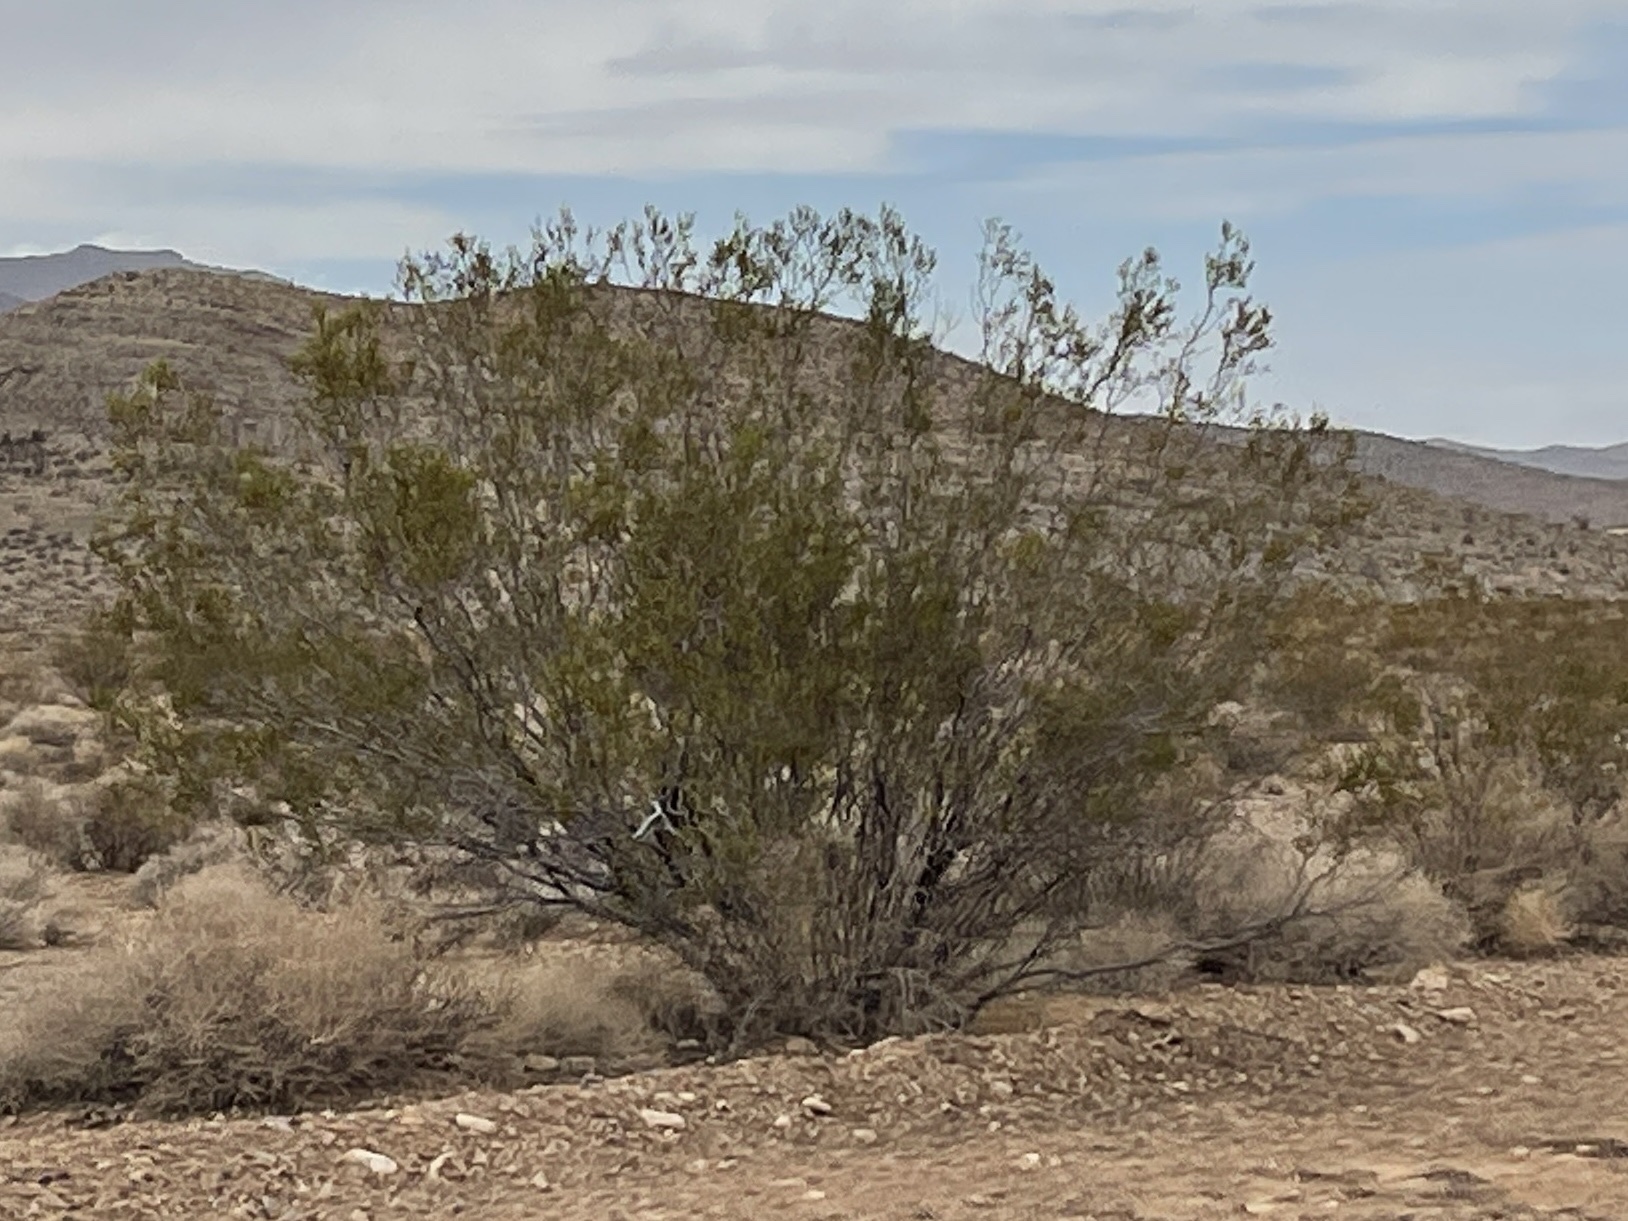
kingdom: Plantae
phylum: Tracheophyta
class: Magnoliopsida
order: Zygophyllales
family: Zygophyllaceae
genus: Larrea
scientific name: Larrea tridentata
